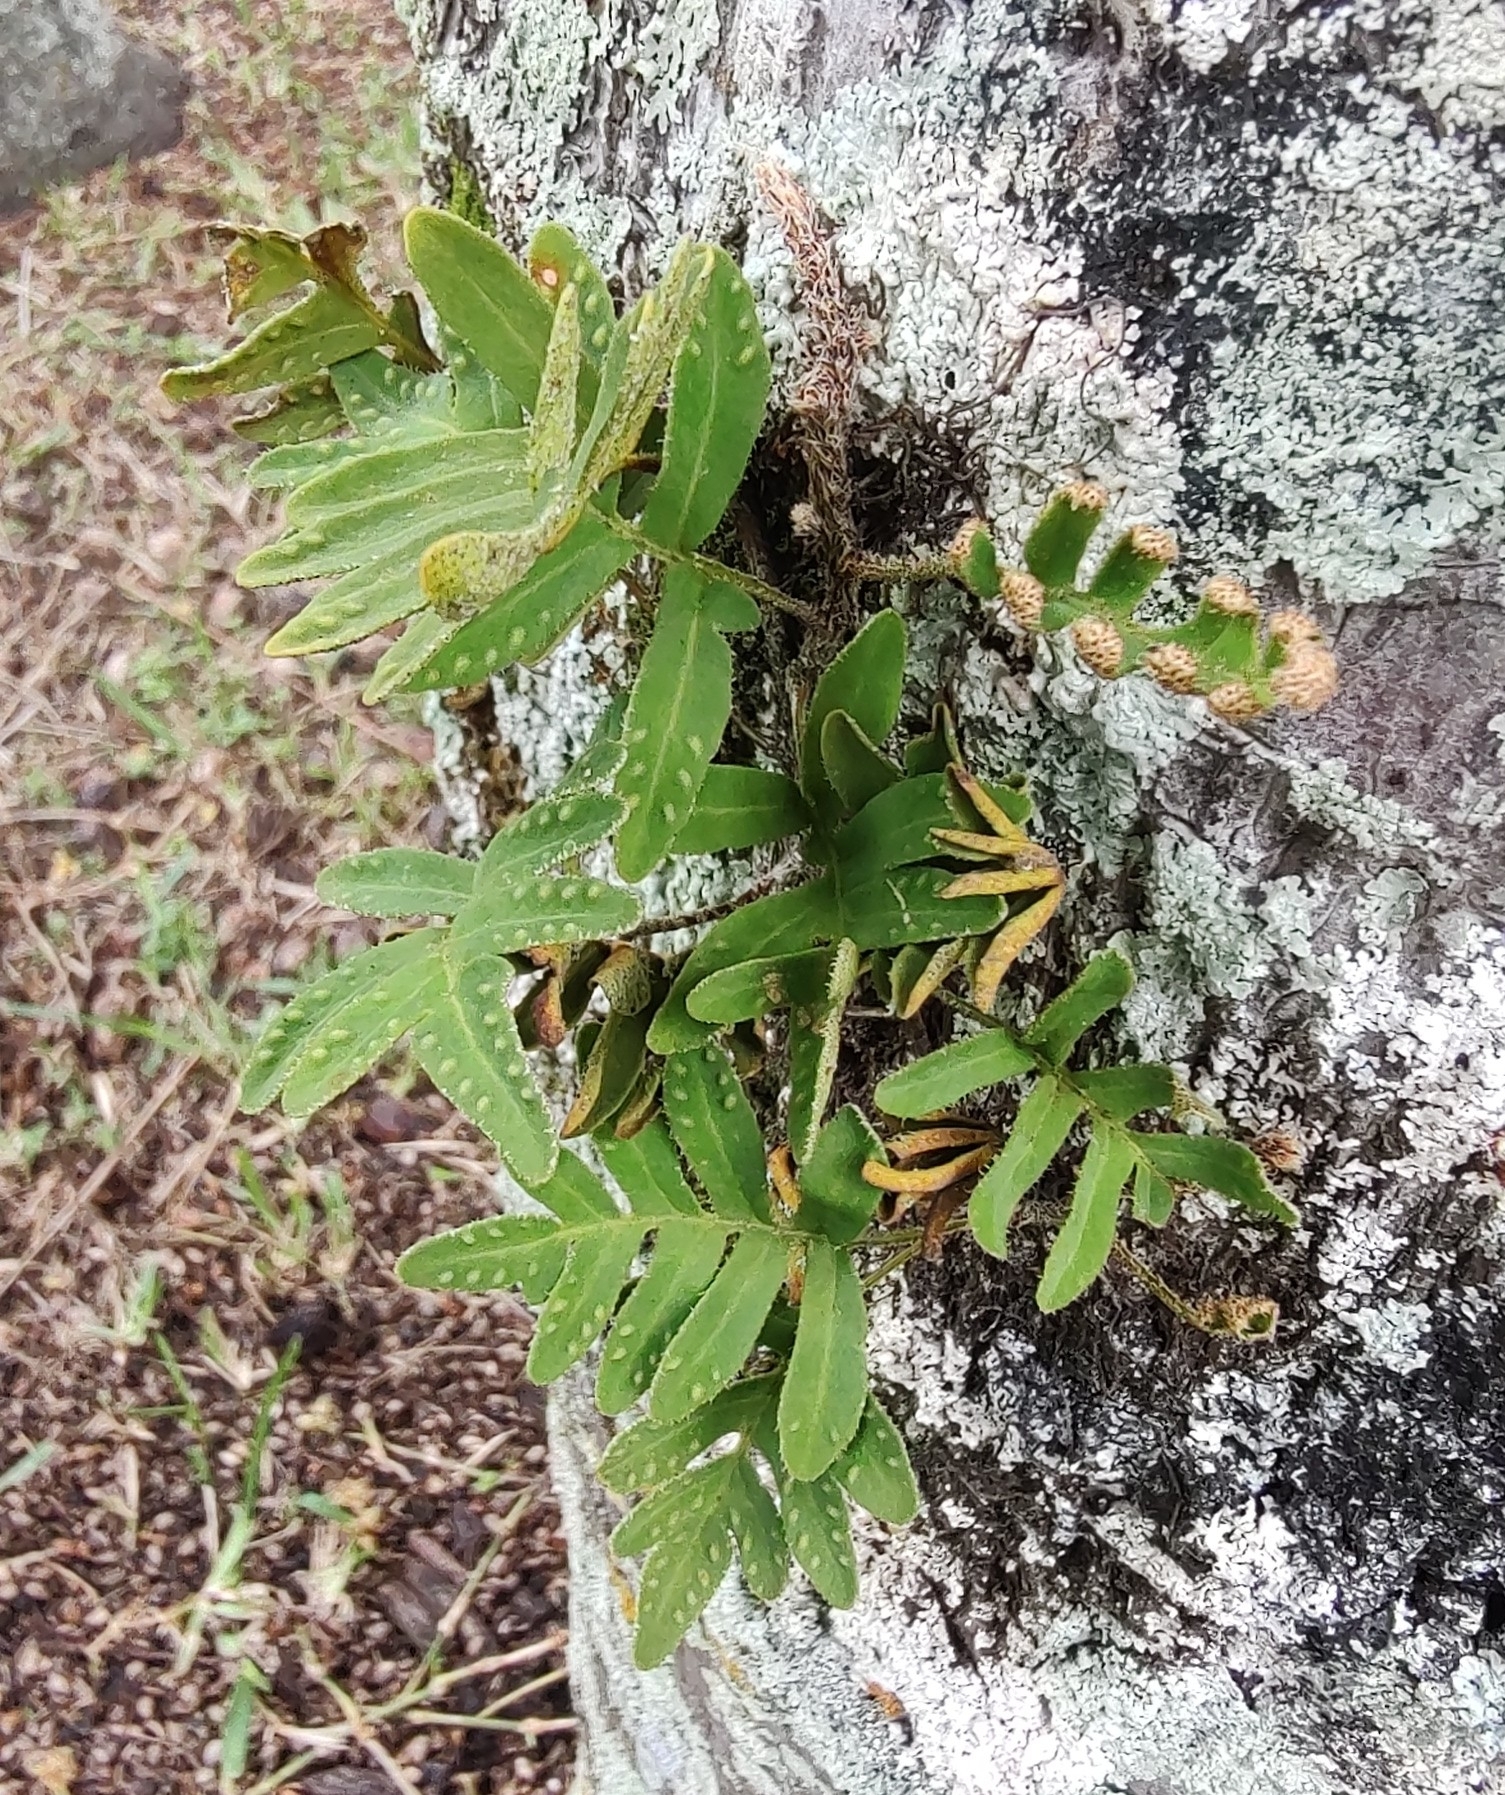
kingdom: Plantae
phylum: Tracheophyta
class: Polypodiopsida
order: Polypodiales
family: Polypodiaceae
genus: Pleopeltis
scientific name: Pleopeltis michauxiana
